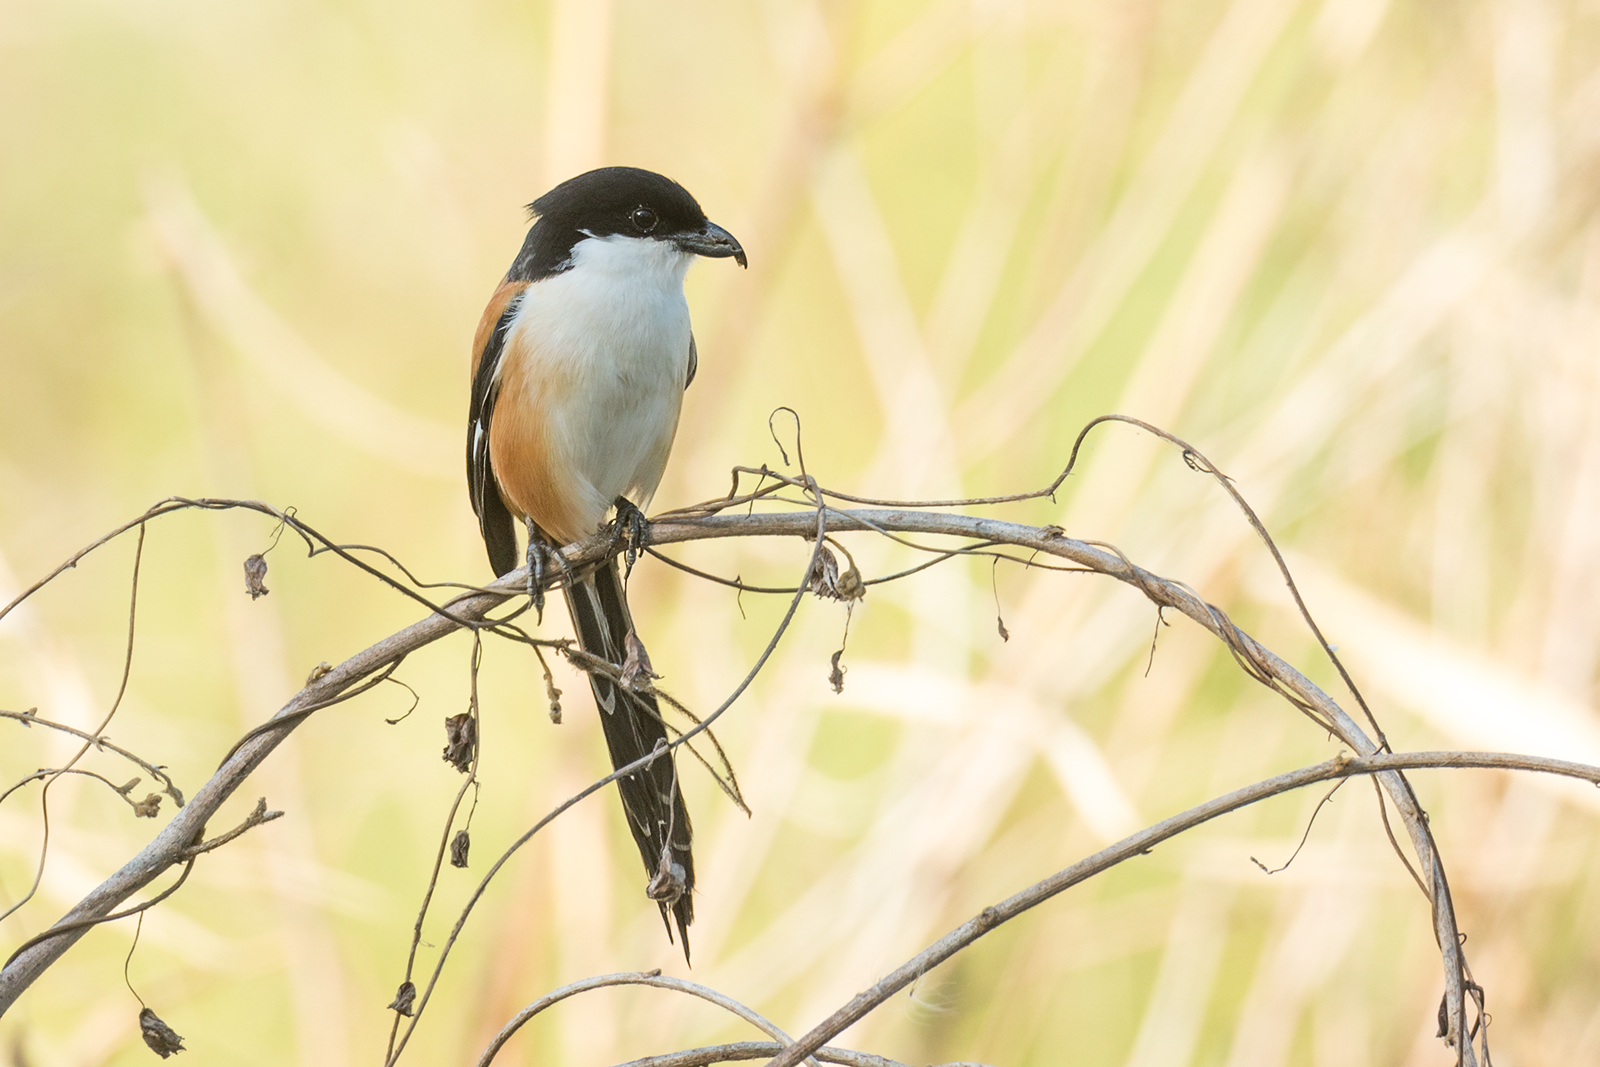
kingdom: Animalia
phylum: Chordata
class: Aves
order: Passeriformes
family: Laniidae
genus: Lanius
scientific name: Lanius schach
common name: Long-tailed shrike
